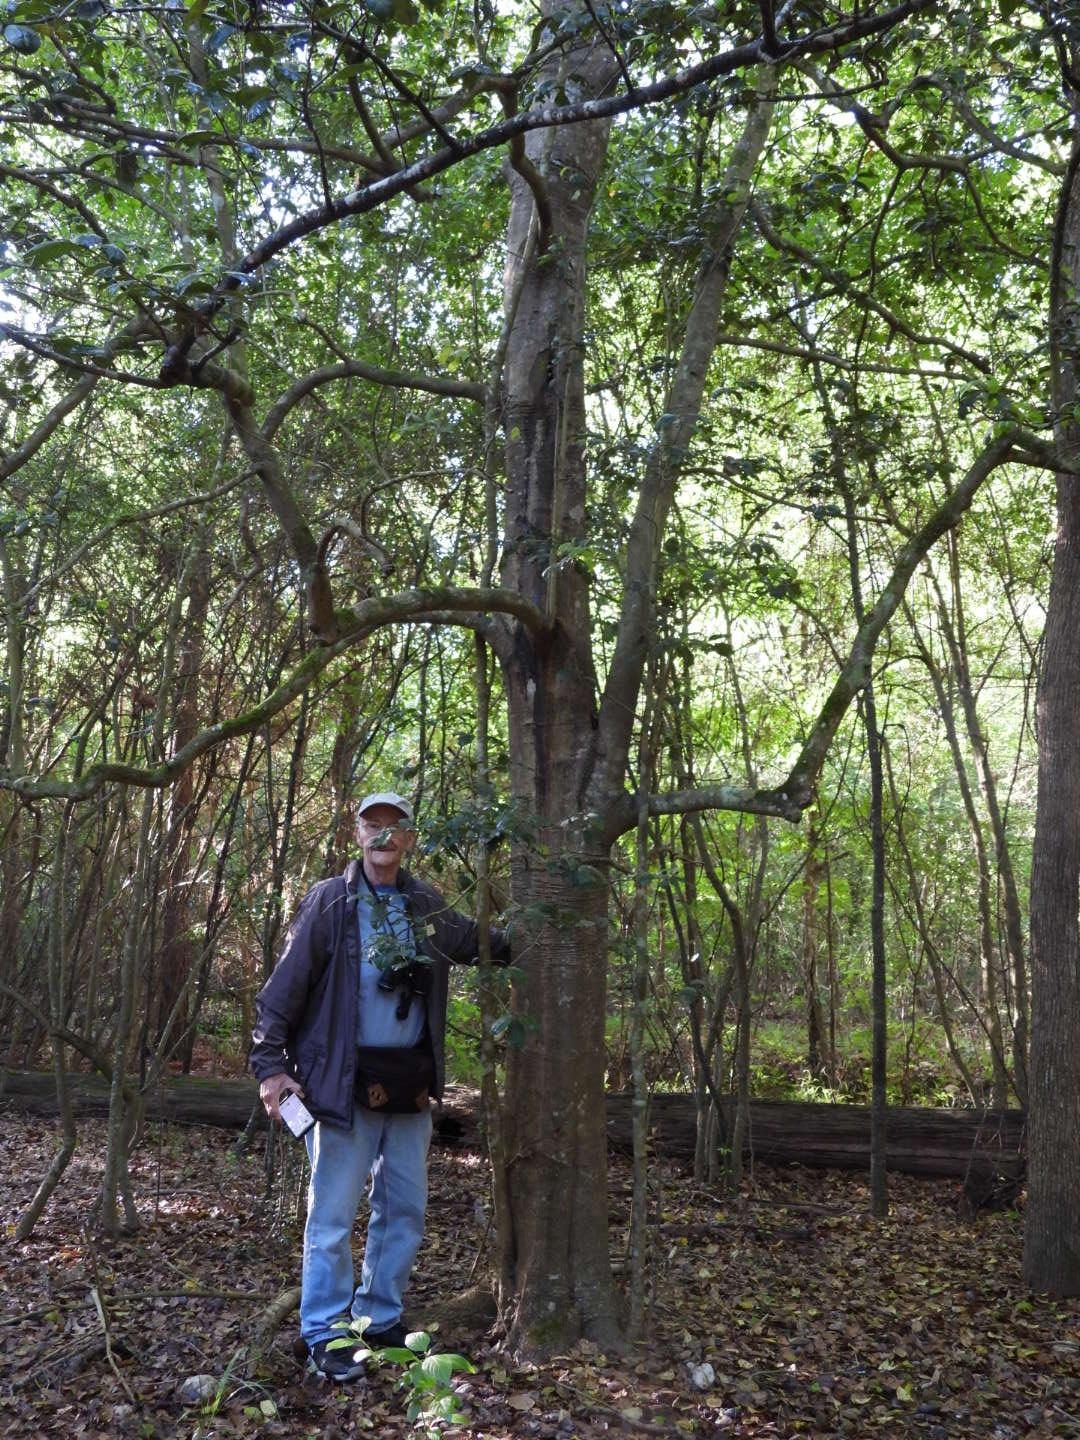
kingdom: Plantae
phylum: Tracheophyta
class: Magnoliopsida
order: Aquifoliales
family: Aquifoliaceae
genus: Ilex
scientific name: Ilex opaca
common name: American holly
